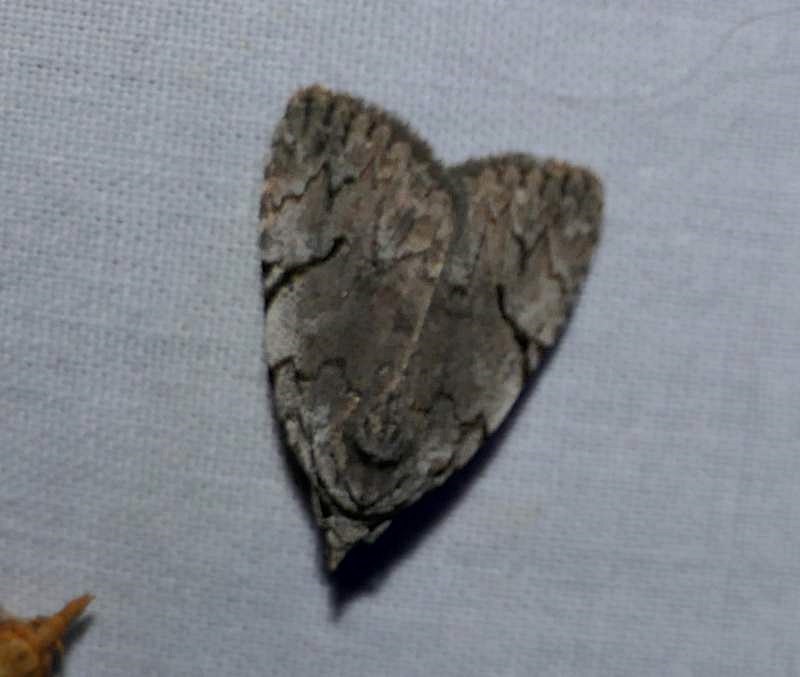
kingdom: Animalia
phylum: Arthropoda
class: Insecta
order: Lepidoptera
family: Noctuidae
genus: Balsa
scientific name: Balsa malana
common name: Many-dotted appleworm moth
